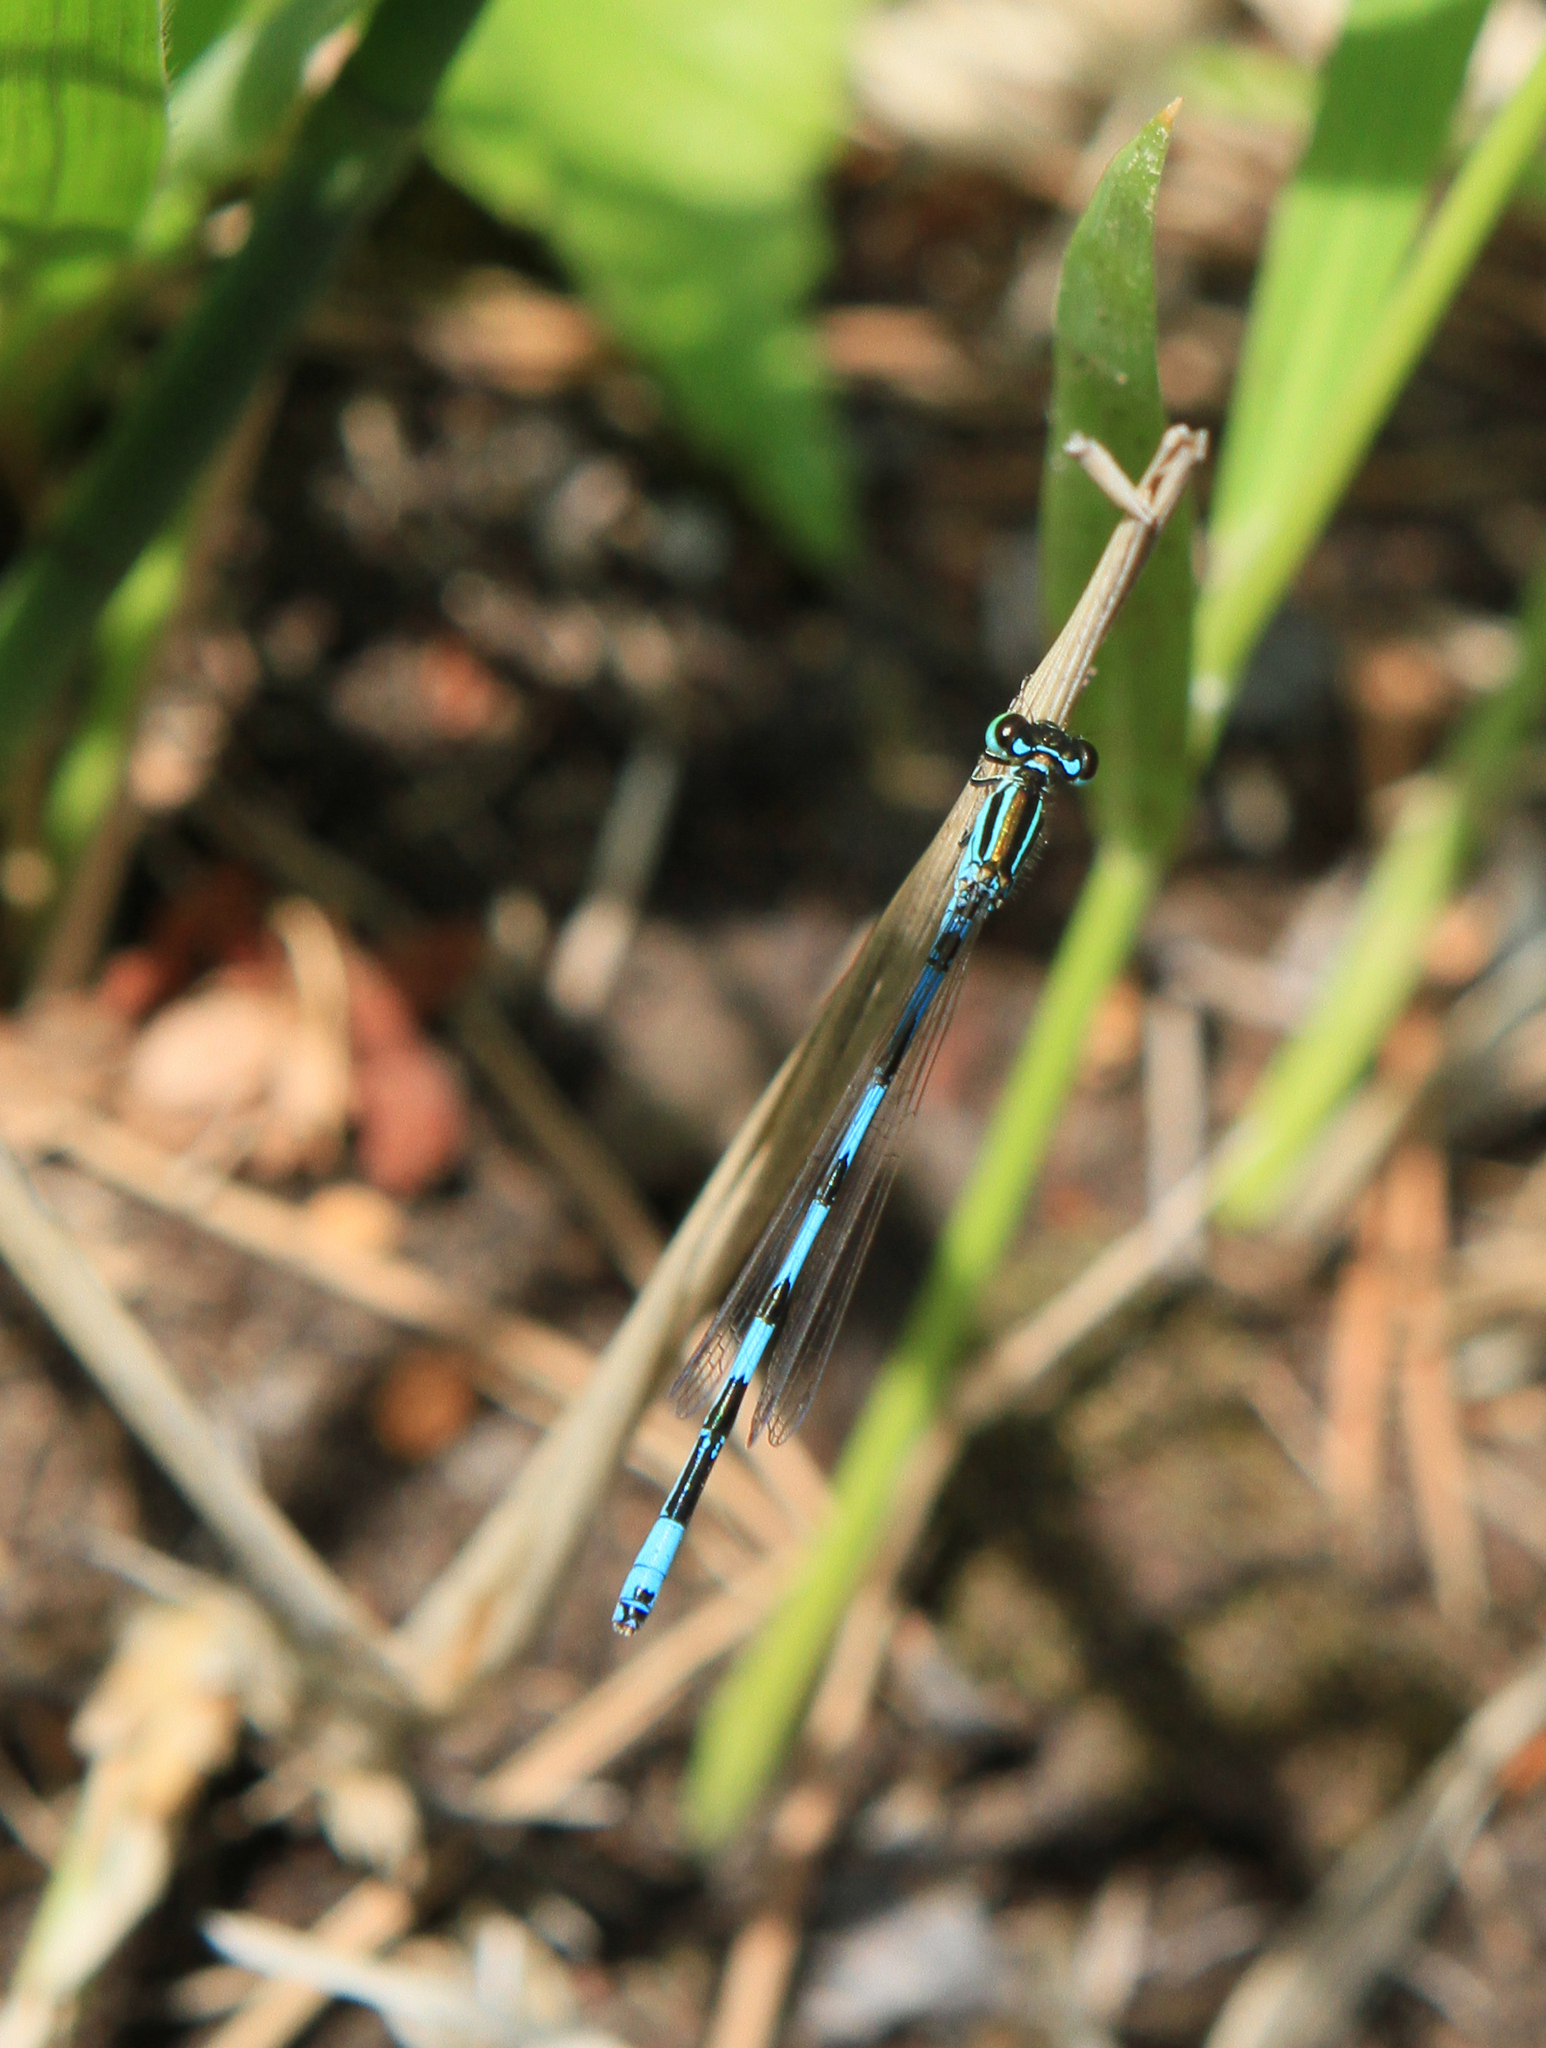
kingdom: Animalia
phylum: Arthropoda
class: Insecta
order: Odonata
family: Coenagrionidae
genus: Coenagrion
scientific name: Coenagrion ecornutum
